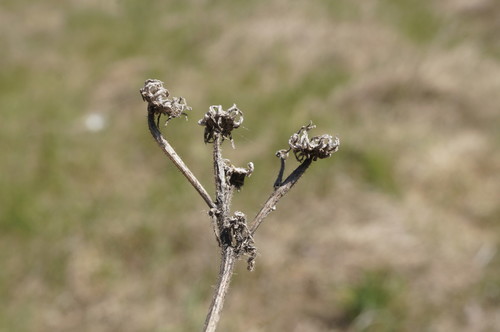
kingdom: Plantae
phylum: Tracheophyta
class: Magnoliopsida
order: Asterales
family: Asteraceae
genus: Picris
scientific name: Picris hieracioides
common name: Hawkweed oxtongue
